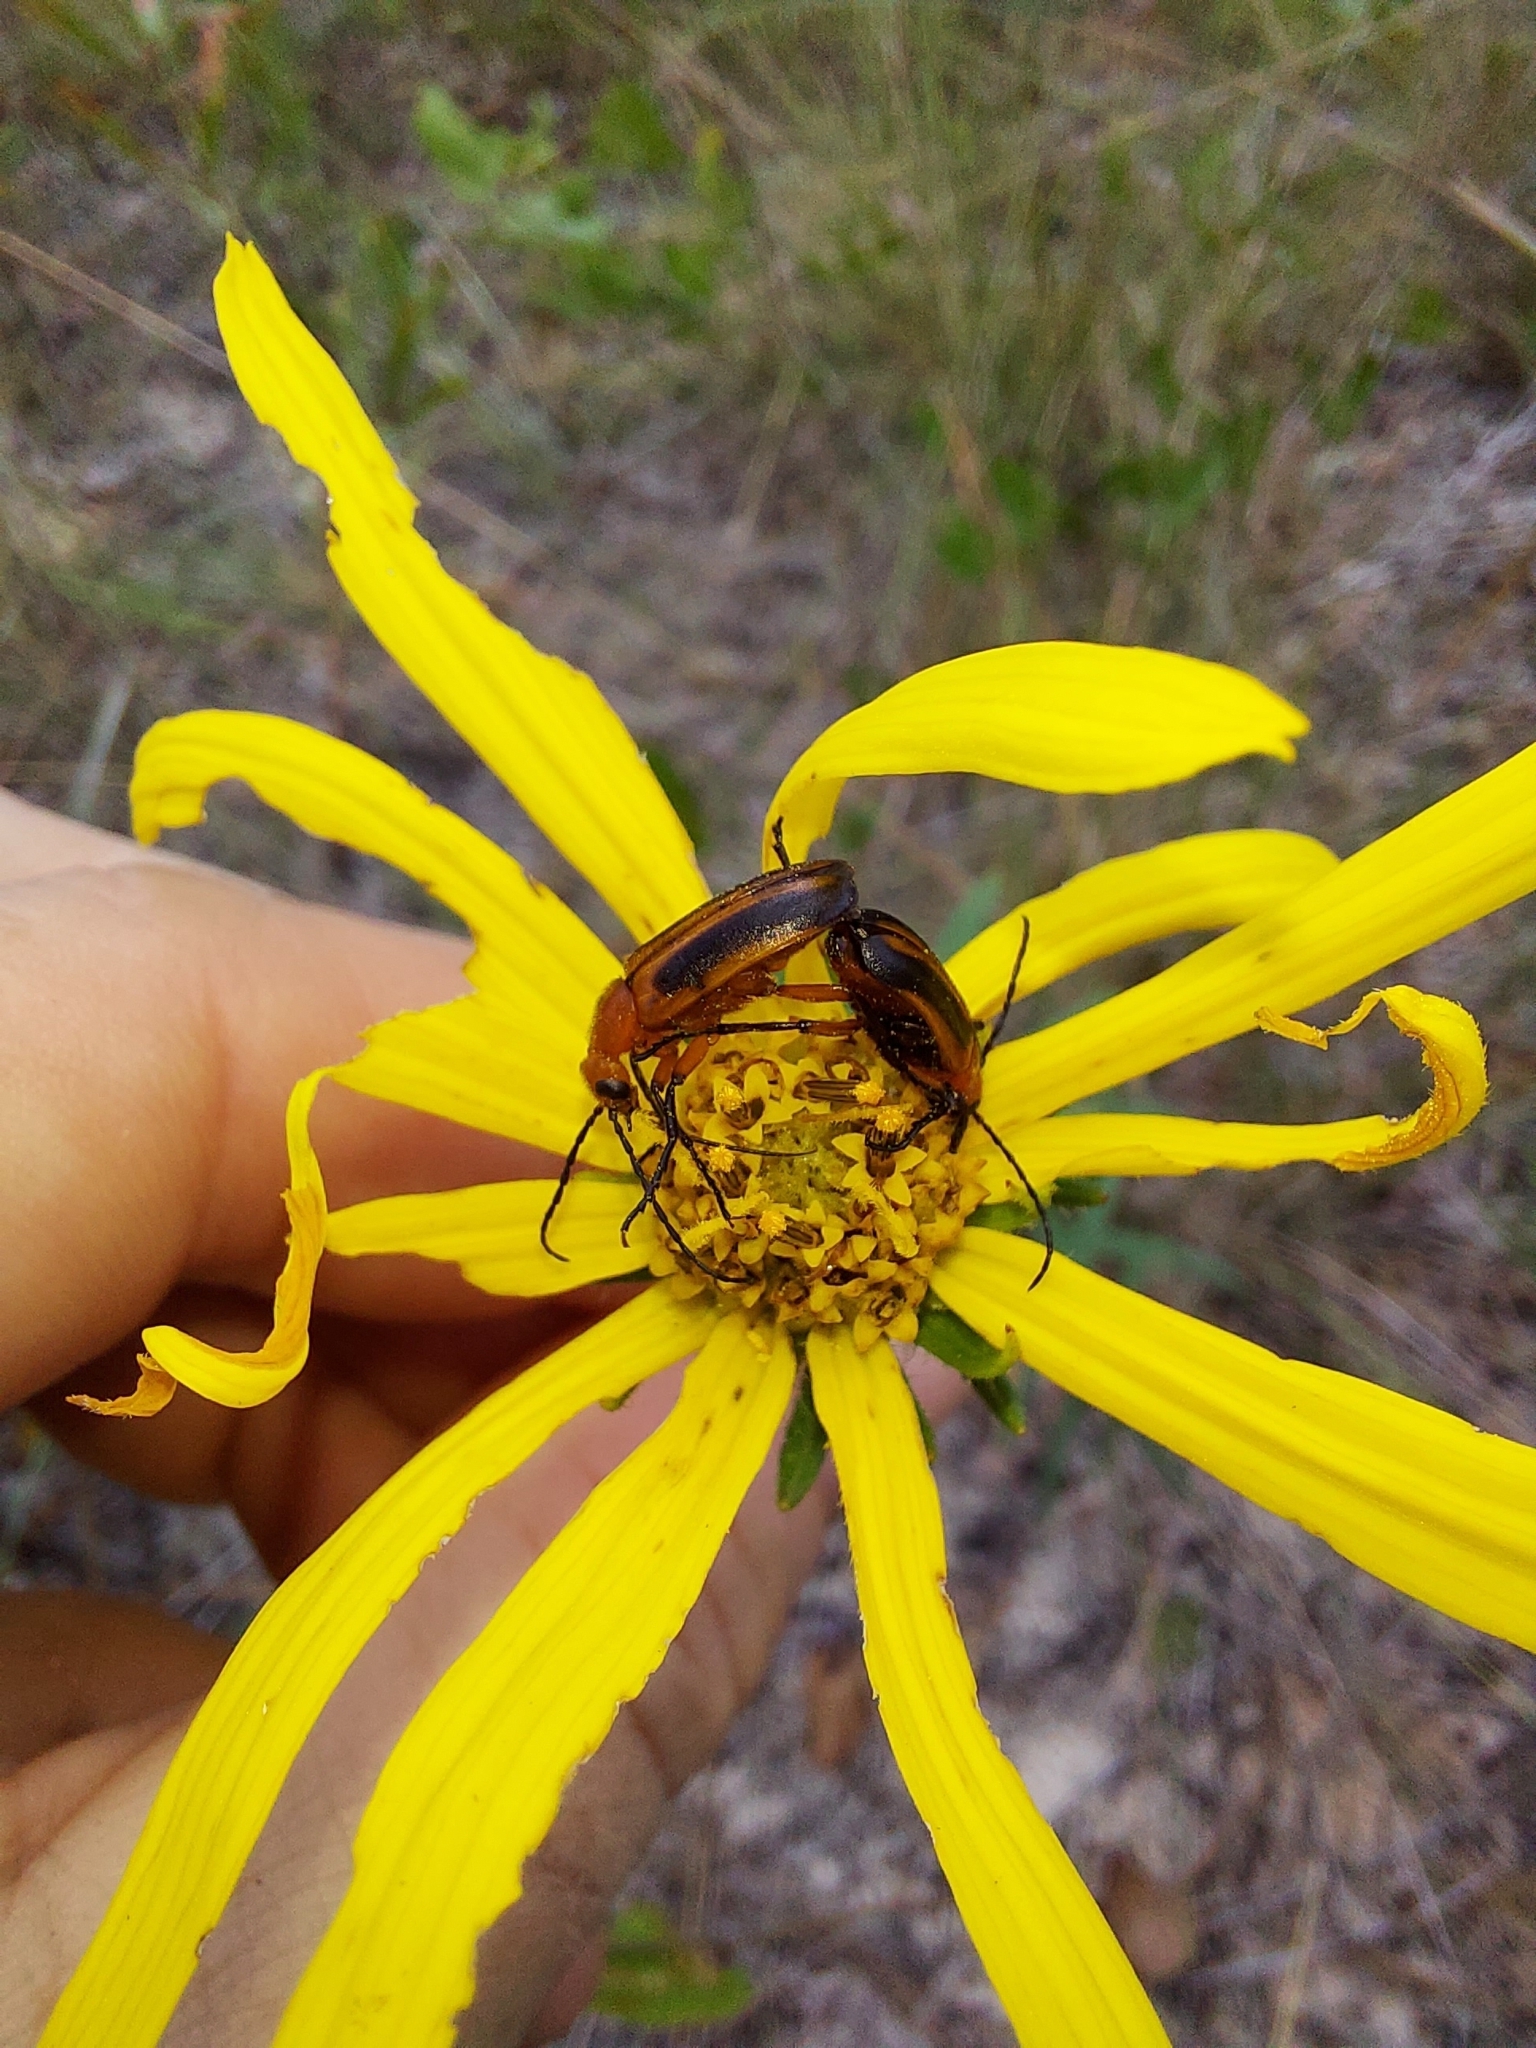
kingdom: Animalia
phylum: Arthropoda
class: Insecta
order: Coleoptera
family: Meloidae
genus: Nemognatha
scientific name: Nemognatha piazata
